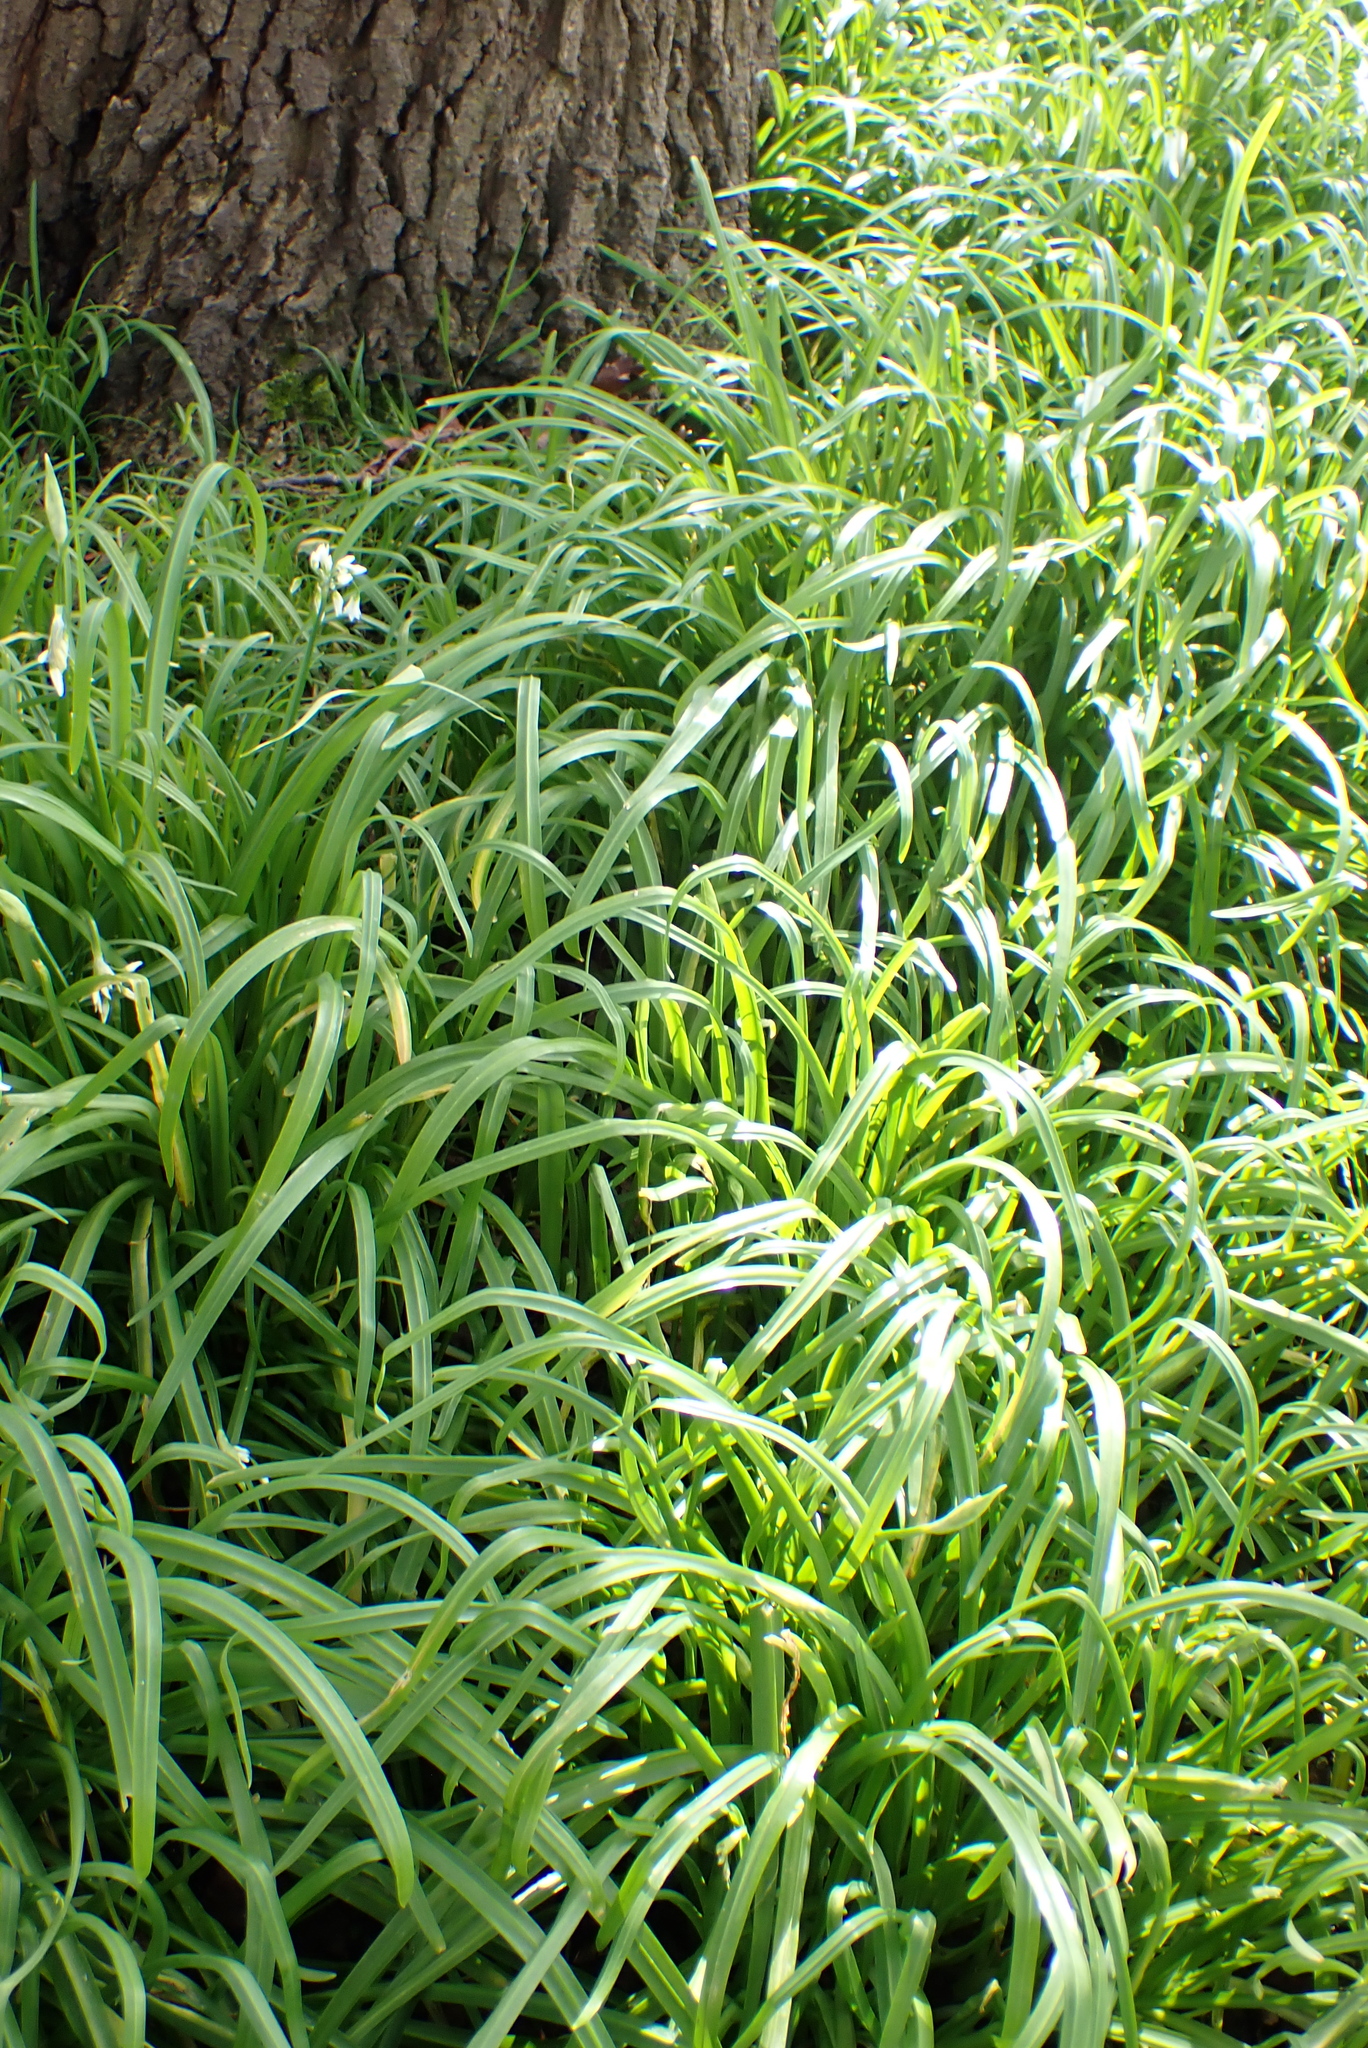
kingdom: Plantae
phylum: Tracheophyta
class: Liliopsida
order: Asparagales
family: Amaryllidaceae
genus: Allium
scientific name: Allium triquetrum
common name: Three-cornered garlic
